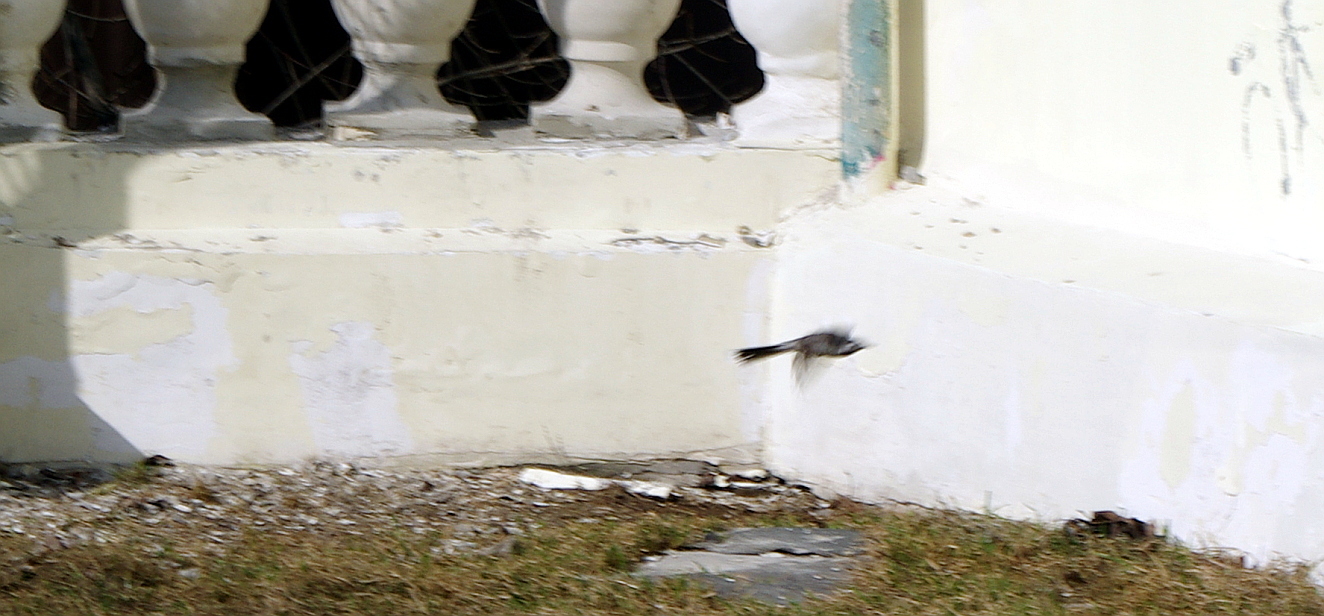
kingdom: Animalia
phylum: Chordata
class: Aves
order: Passeriformes
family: Motacillidae
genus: Motacilla
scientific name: Motacilla alba
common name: White wagtail
